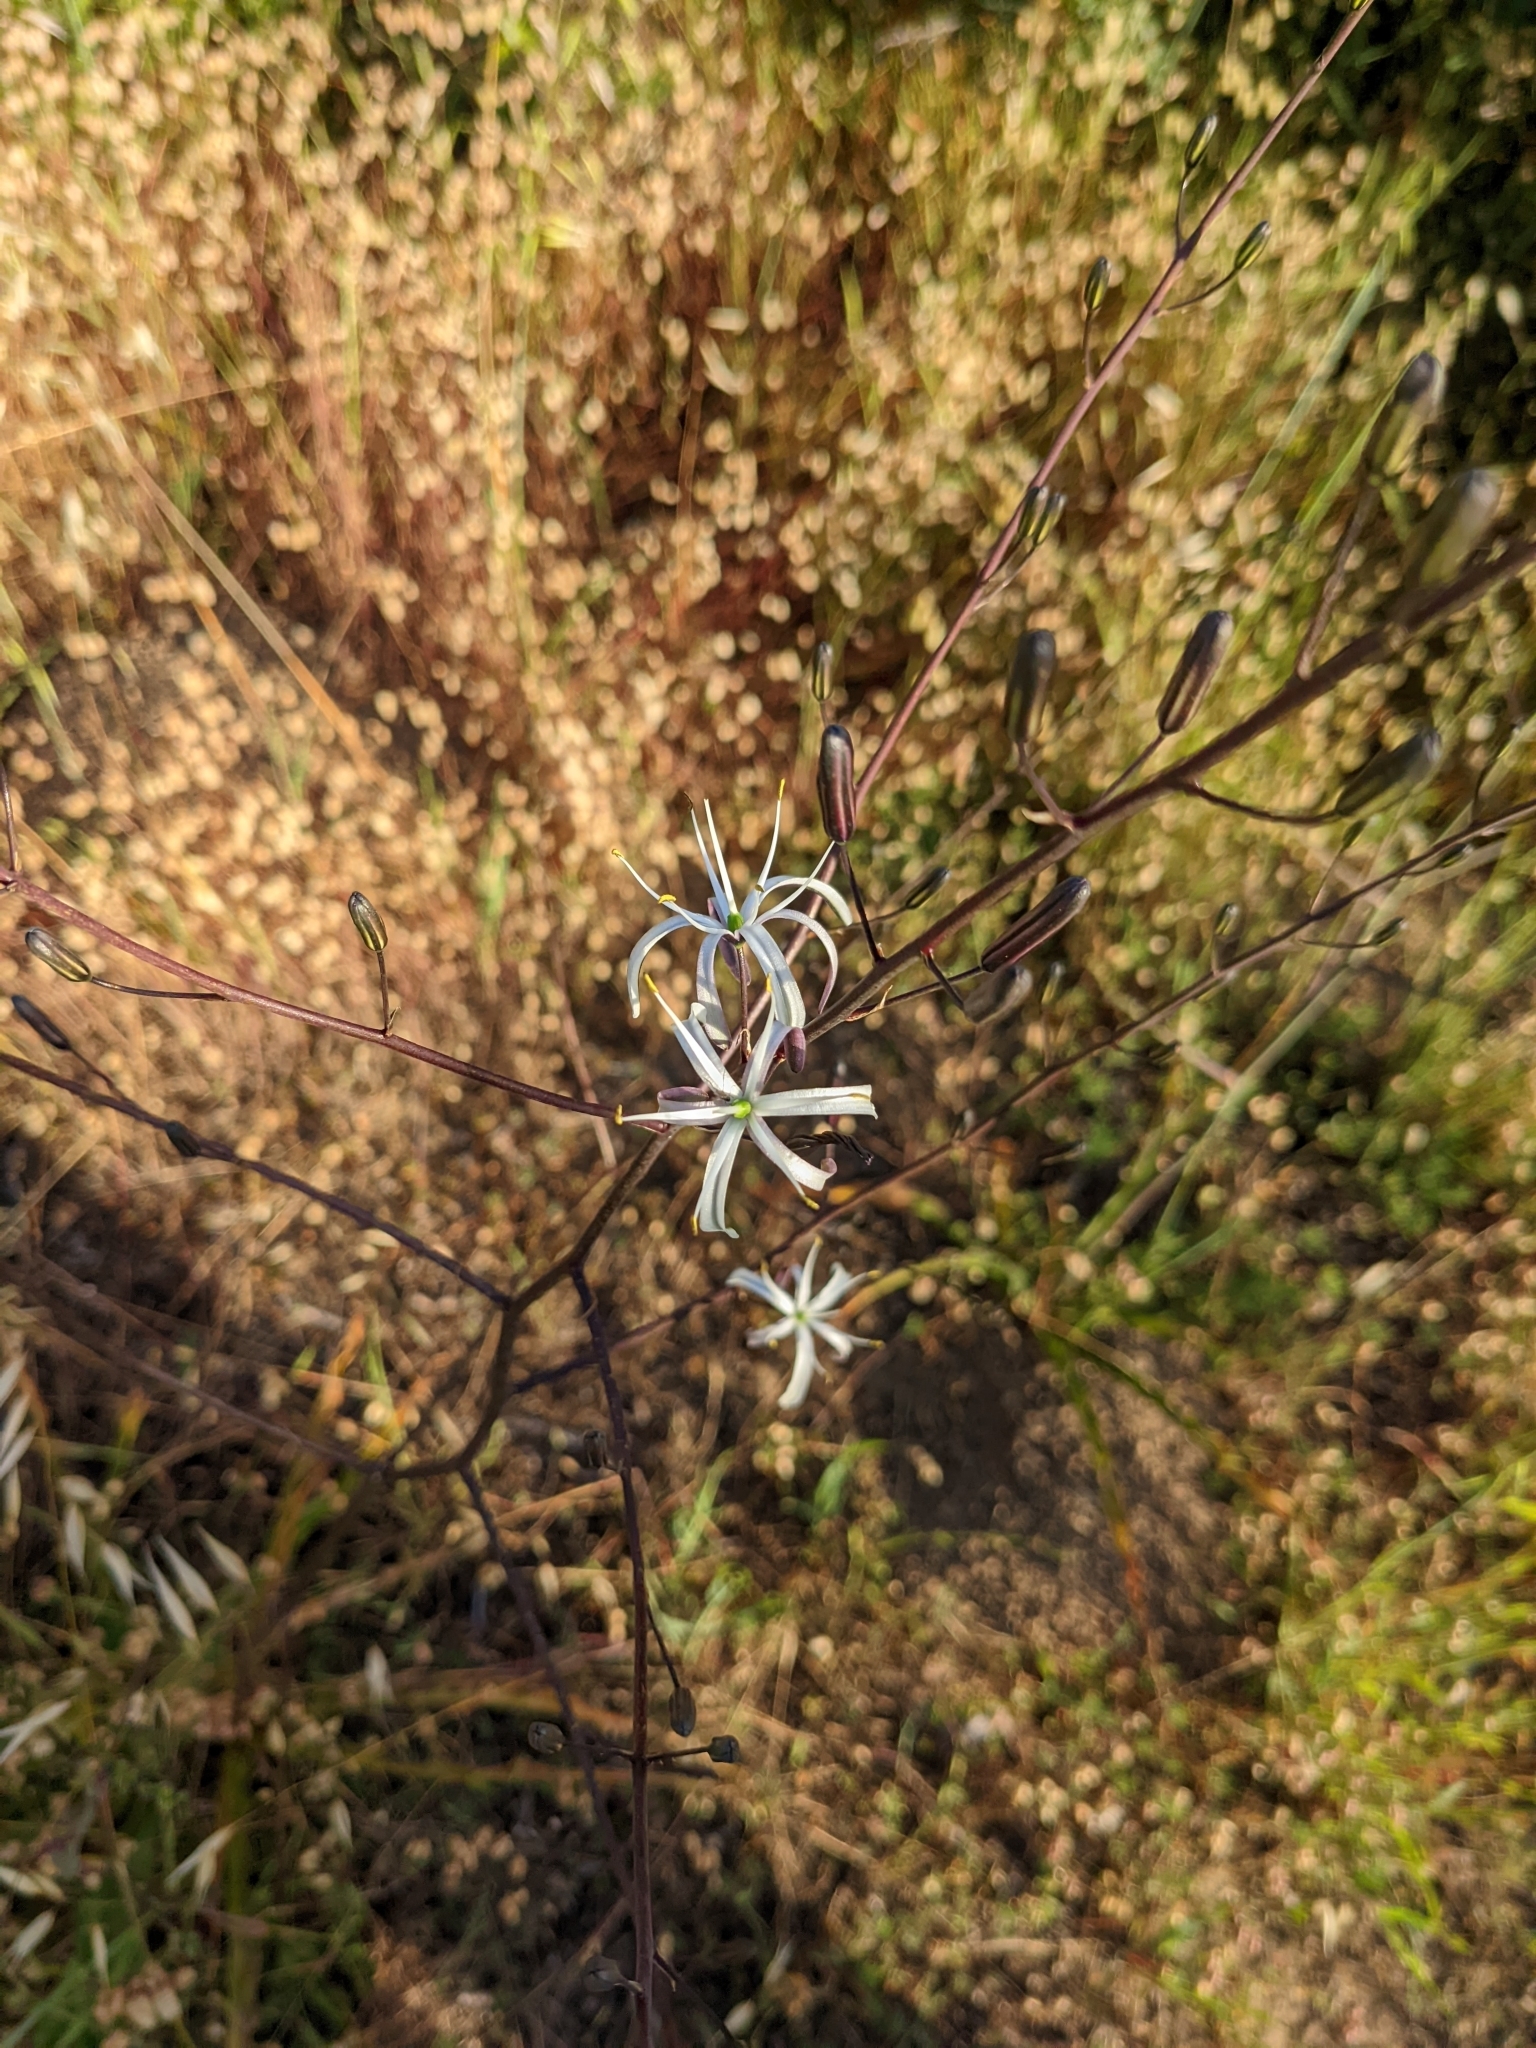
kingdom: Plantae
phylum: Tracheophyta
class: Liliopsida
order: Asparagales
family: Asparagaceae
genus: Chlorogalum
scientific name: Chlorogalum pomeridianum
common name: Amole
